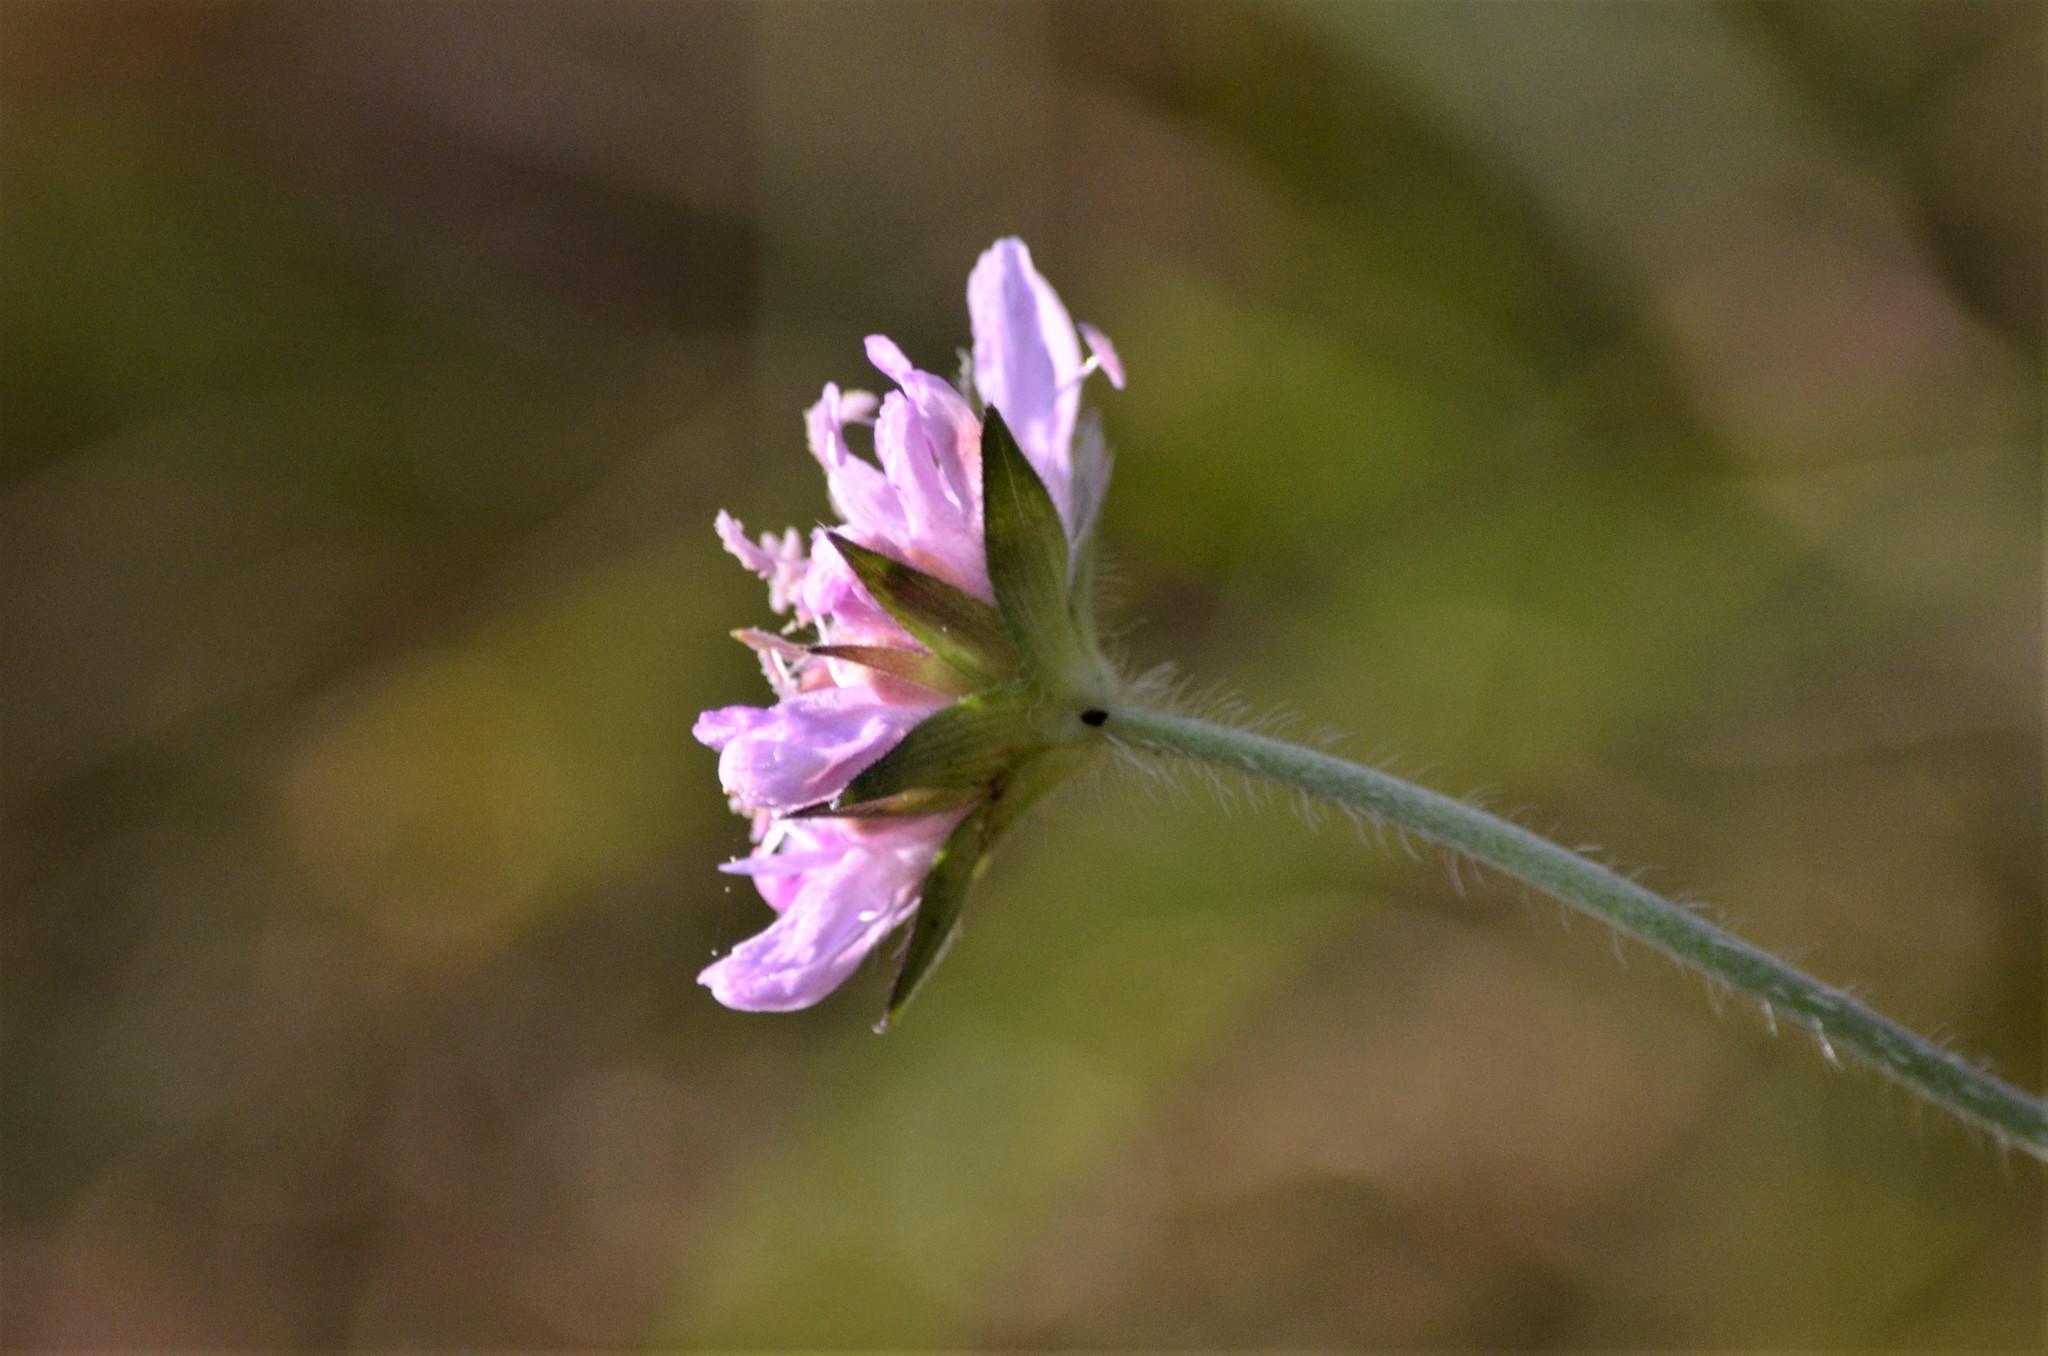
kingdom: Plantae
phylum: Tracheophyta
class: Magnoliopsida
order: Dipsacales
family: Caprifoliaceae
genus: Knautia
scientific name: Knautia arvensis
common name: Field scabiosa
